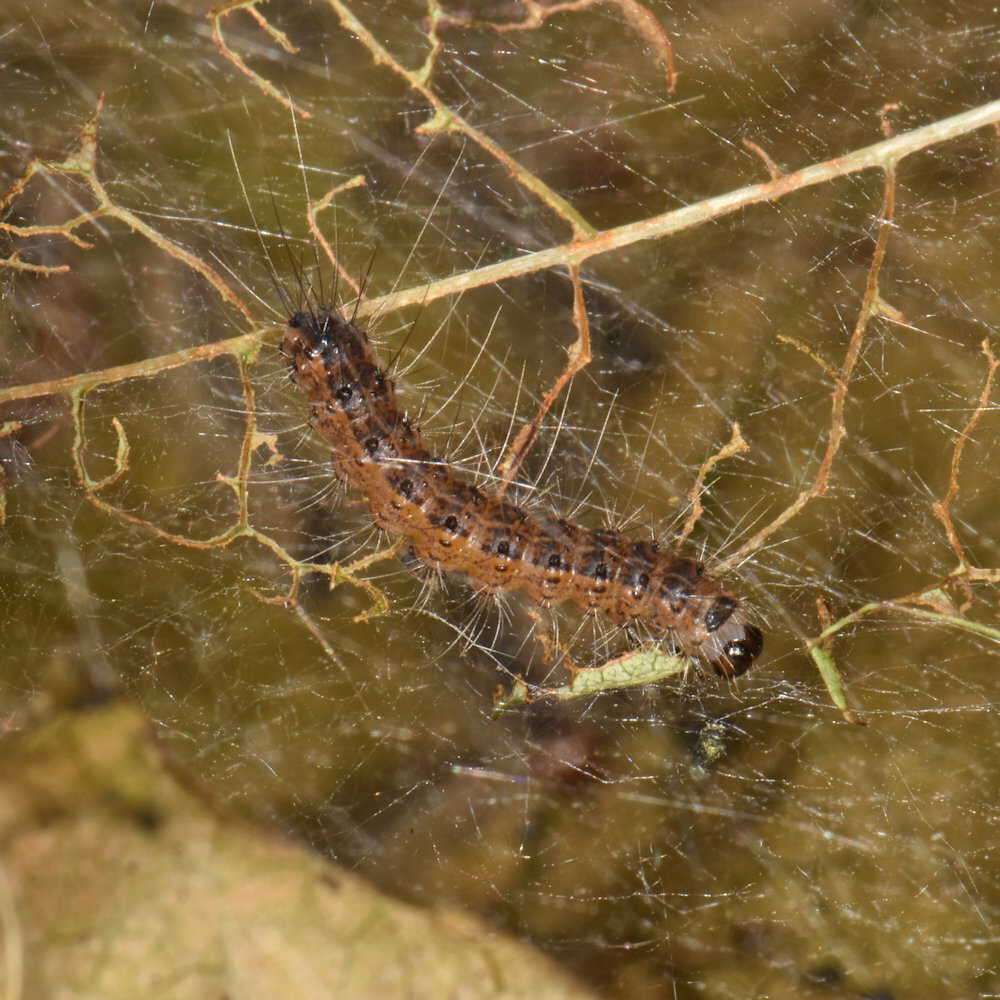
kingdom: Animalia
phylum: Arthropoda
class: Insecta
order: Lepidoptera
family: Erebidae
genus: Hyphantria
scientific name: Hyphantria cunea
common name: American white moth
